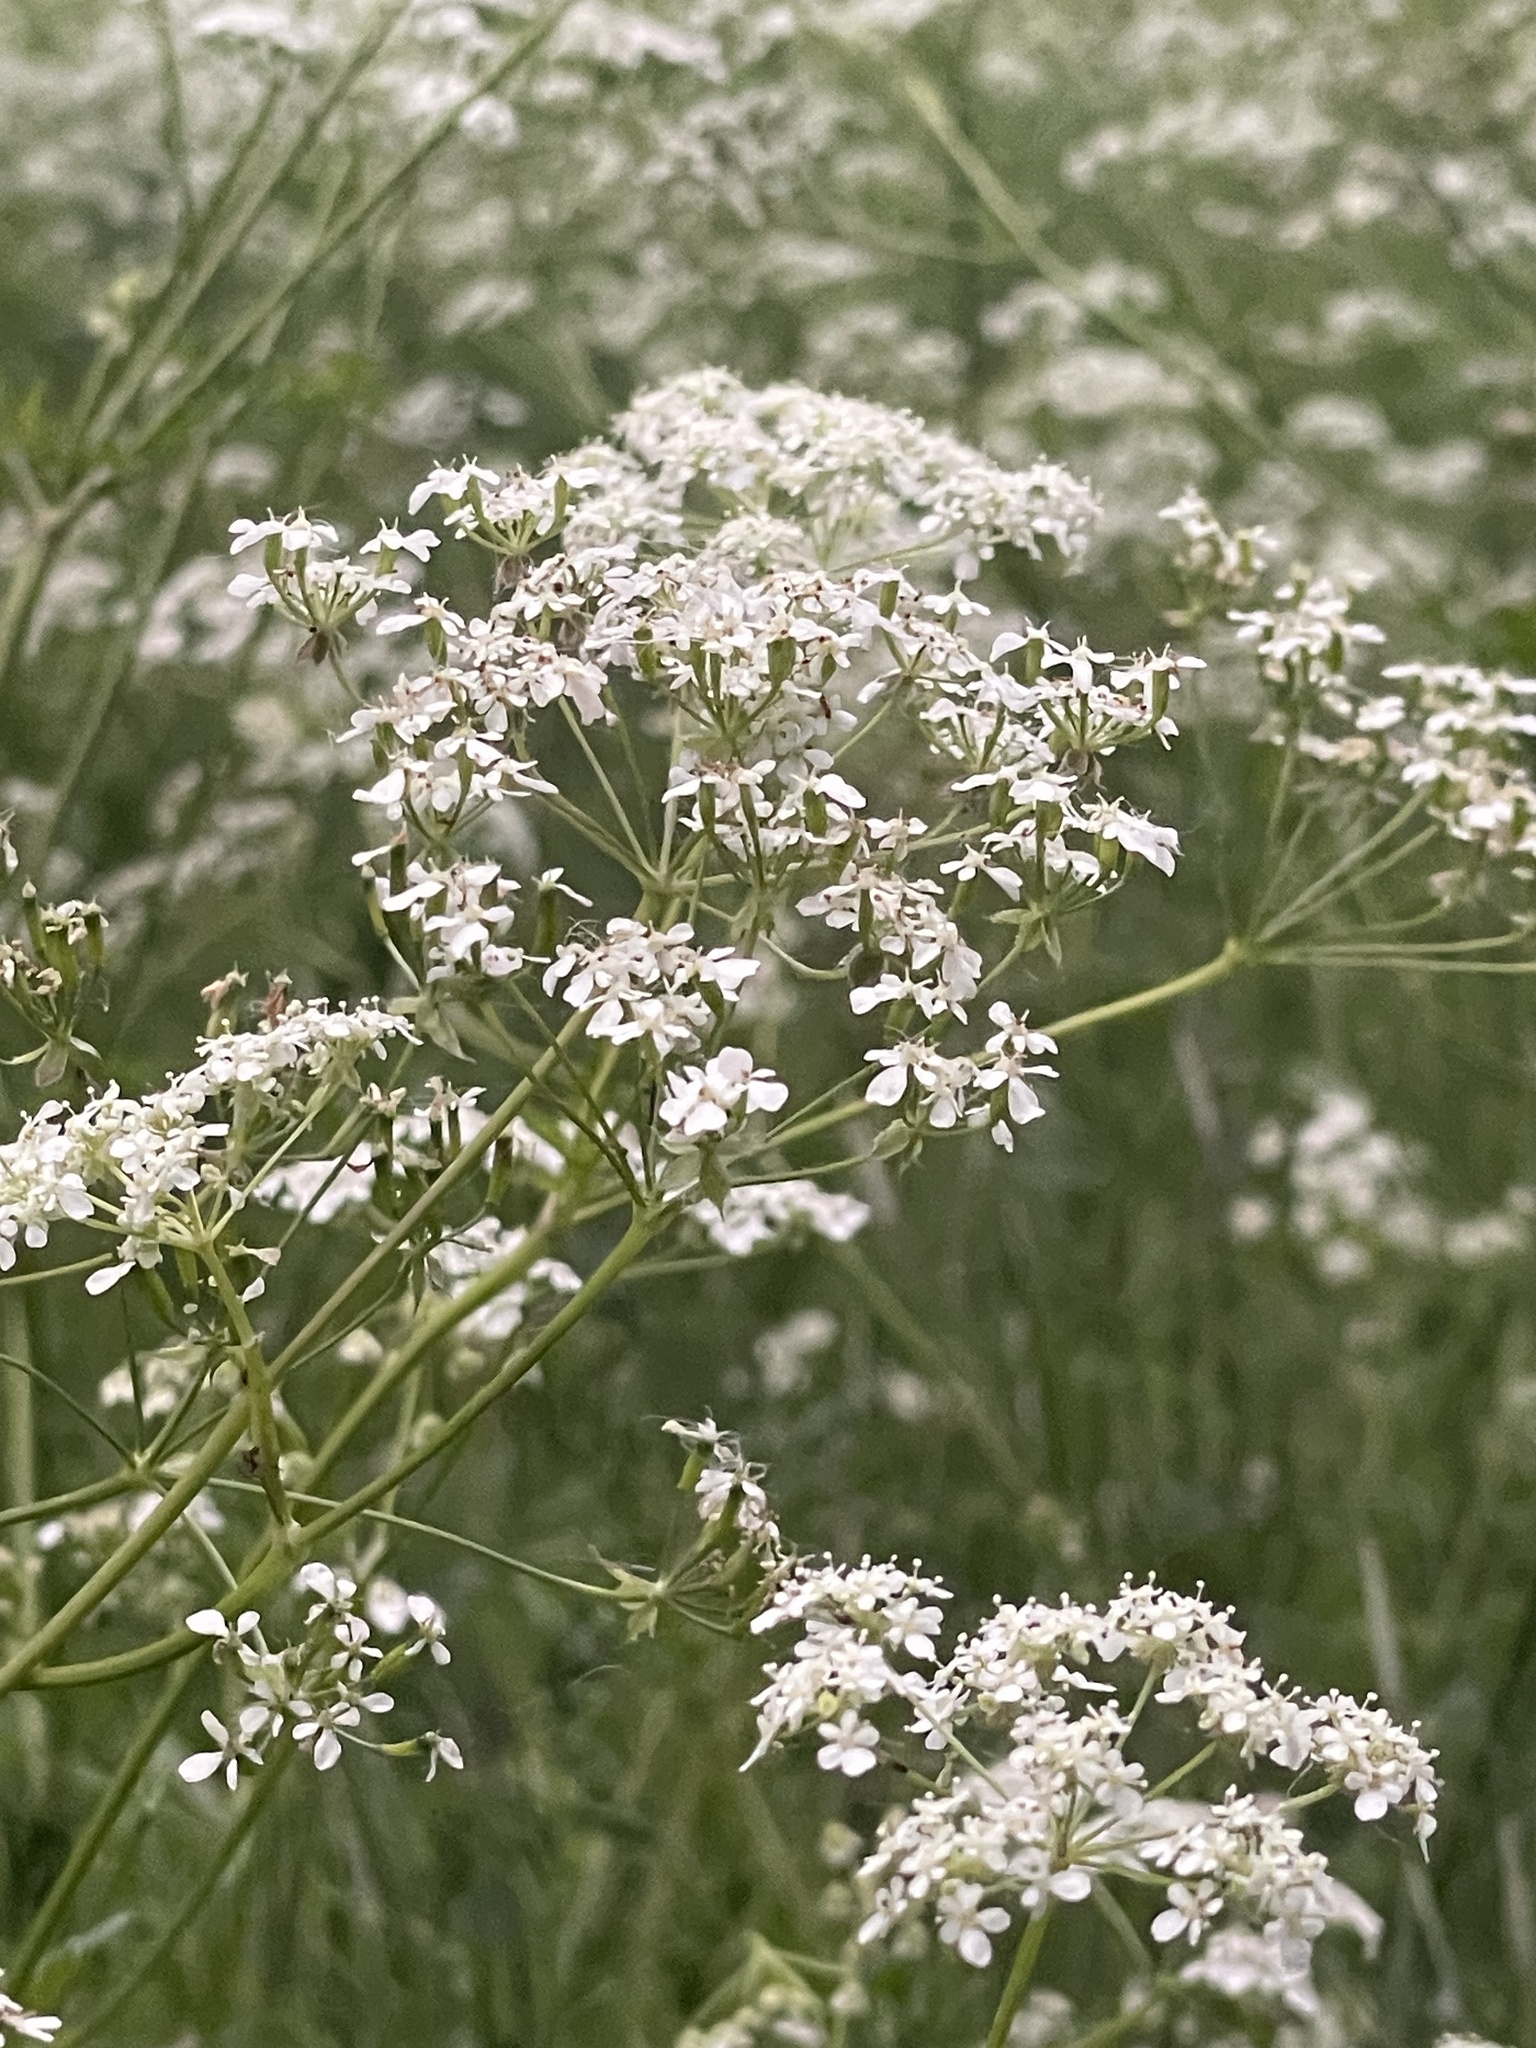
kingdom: Plantae
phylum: Tracheophyta
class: Magnoliopsida
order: Apiales
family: Apiaceae
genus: Anthriscus
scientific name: Anthriscus sylvestris
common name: Cow parsley
